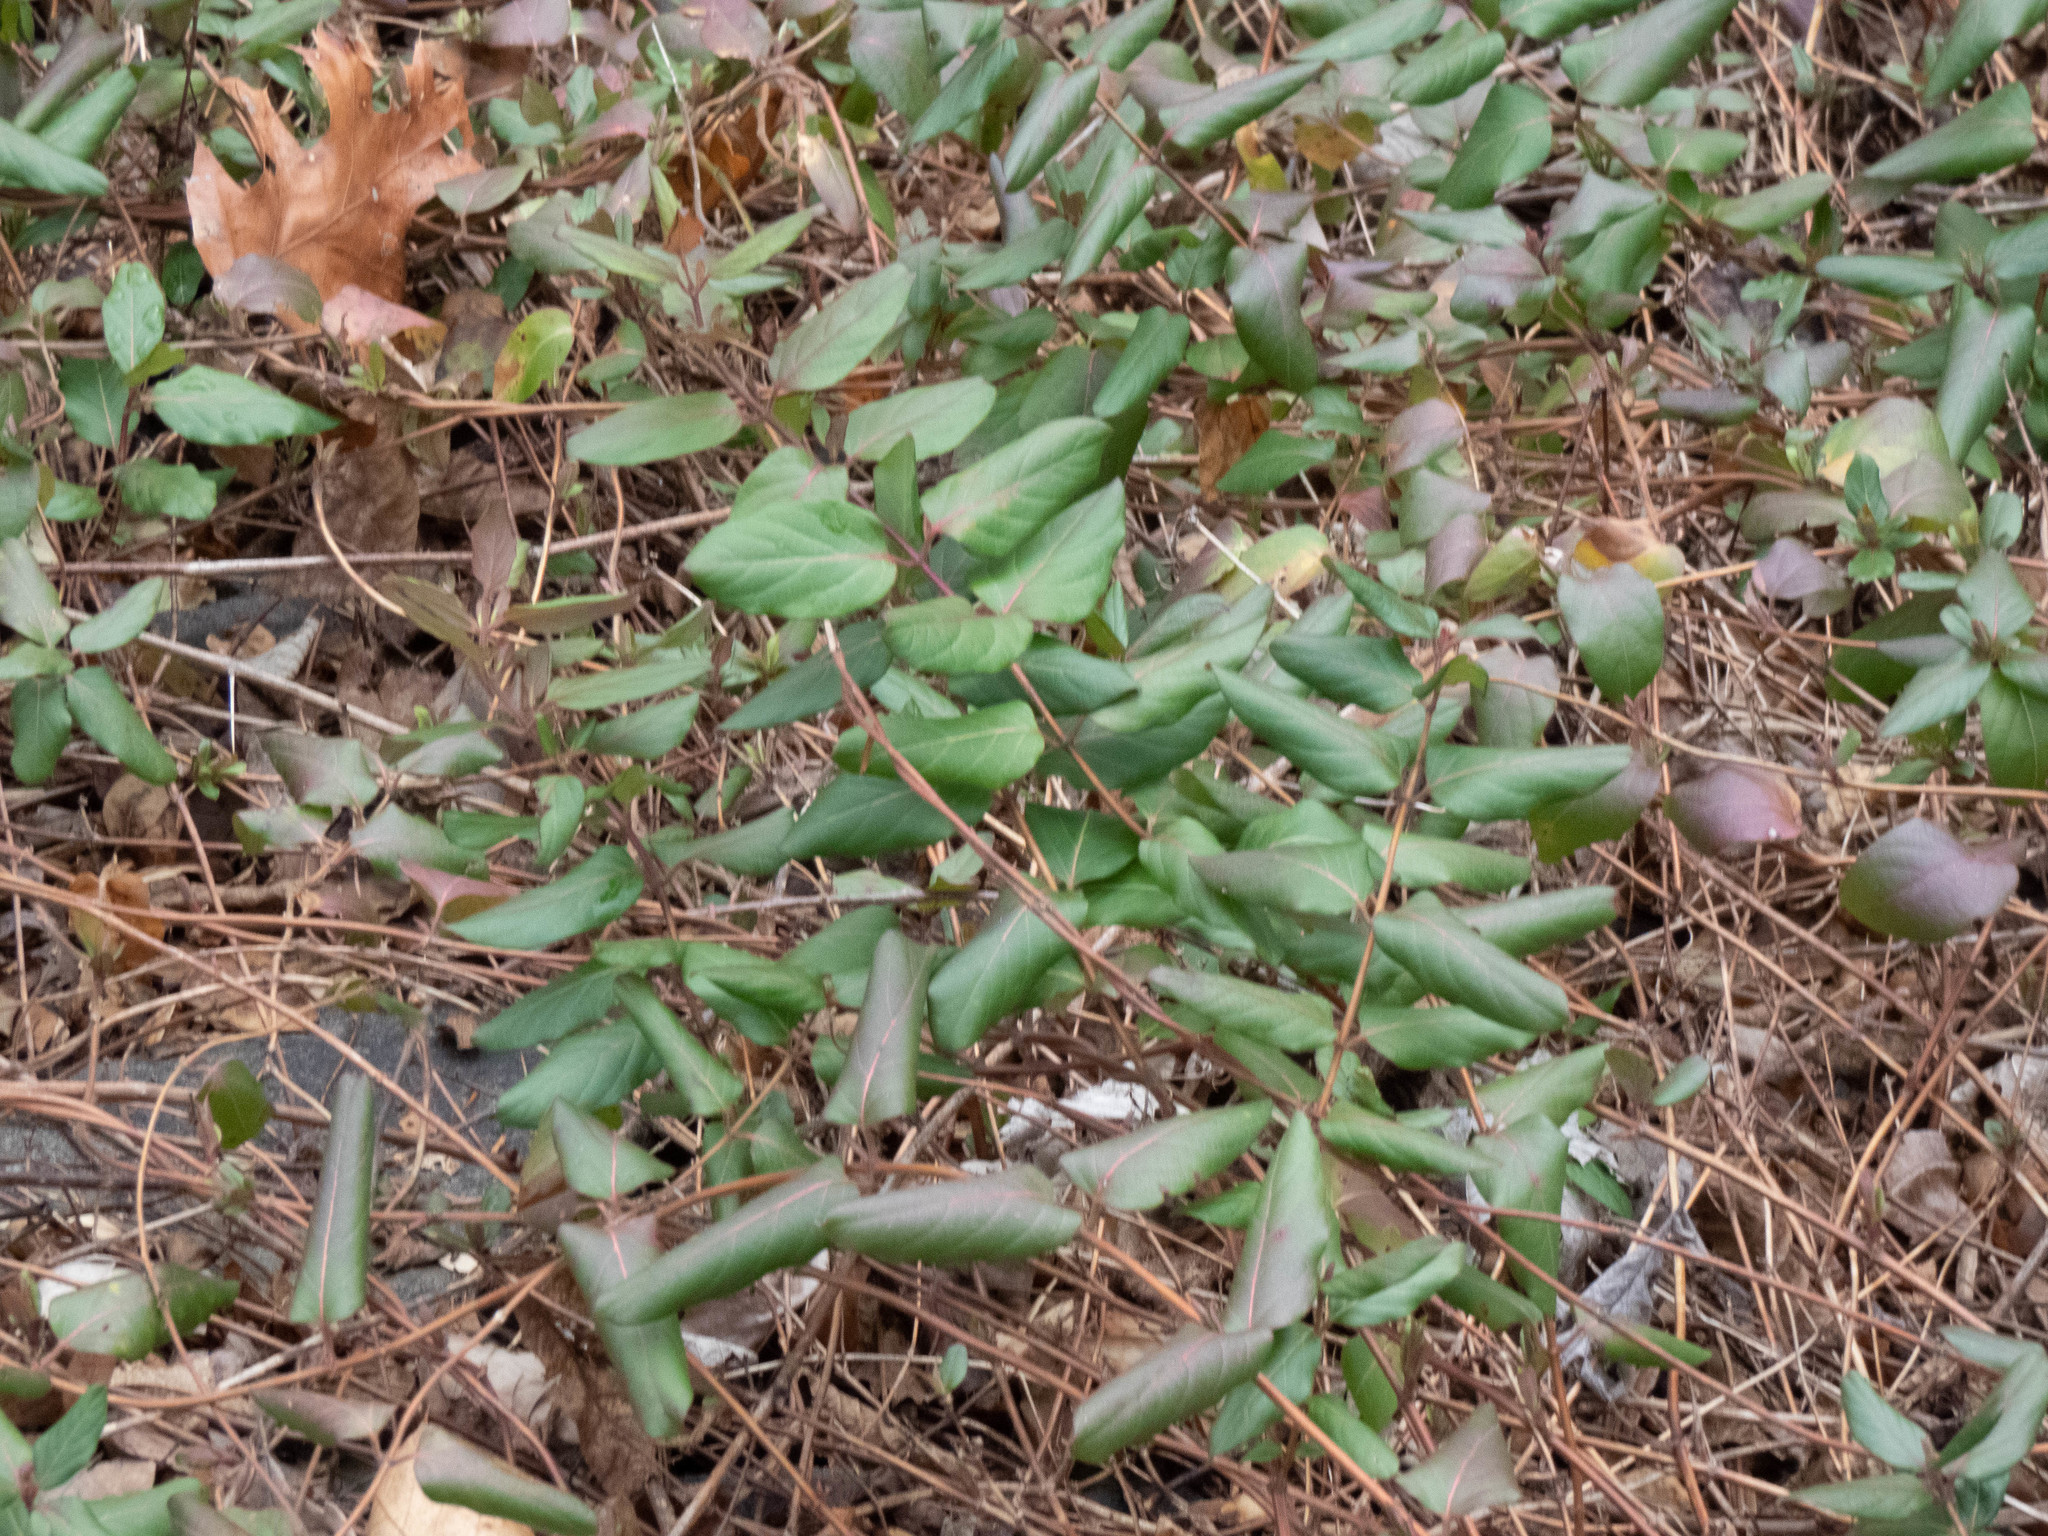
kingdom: Plantae
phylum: Tracheophyta
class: Magnoliopsida
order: Dipsacales
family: Caprifoliaceae
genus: Lonicera
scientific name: Lonicera japonica
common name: Japanese honeysuckle
